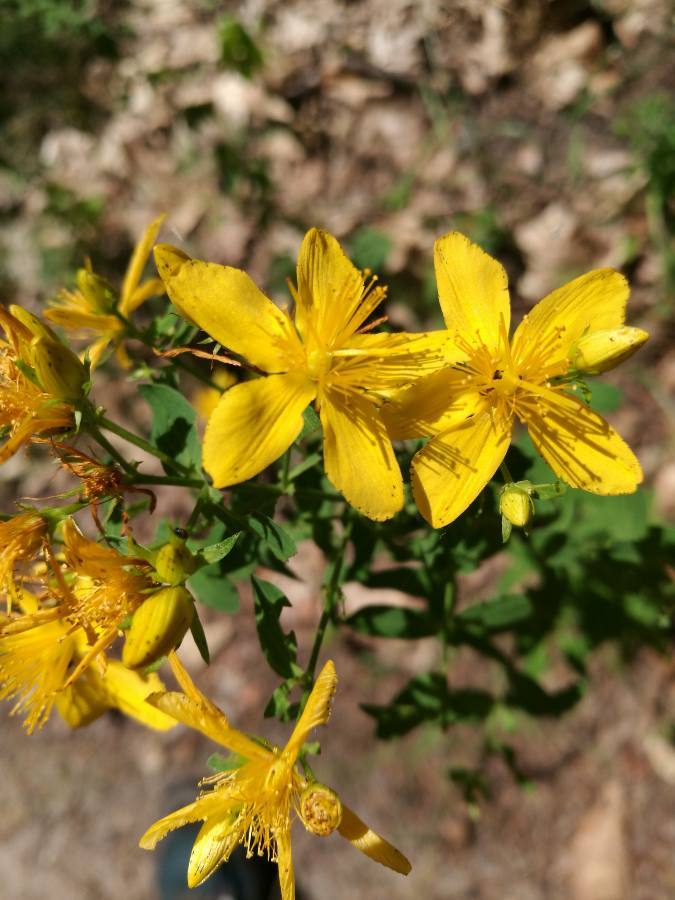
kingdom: Plantae
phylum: Tracheophyta
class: Magnoliopsida
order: Malpighiales
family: Hypericaceae
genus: Hypericum
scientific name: Hypericum perforatum
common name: Common st. johnswort
